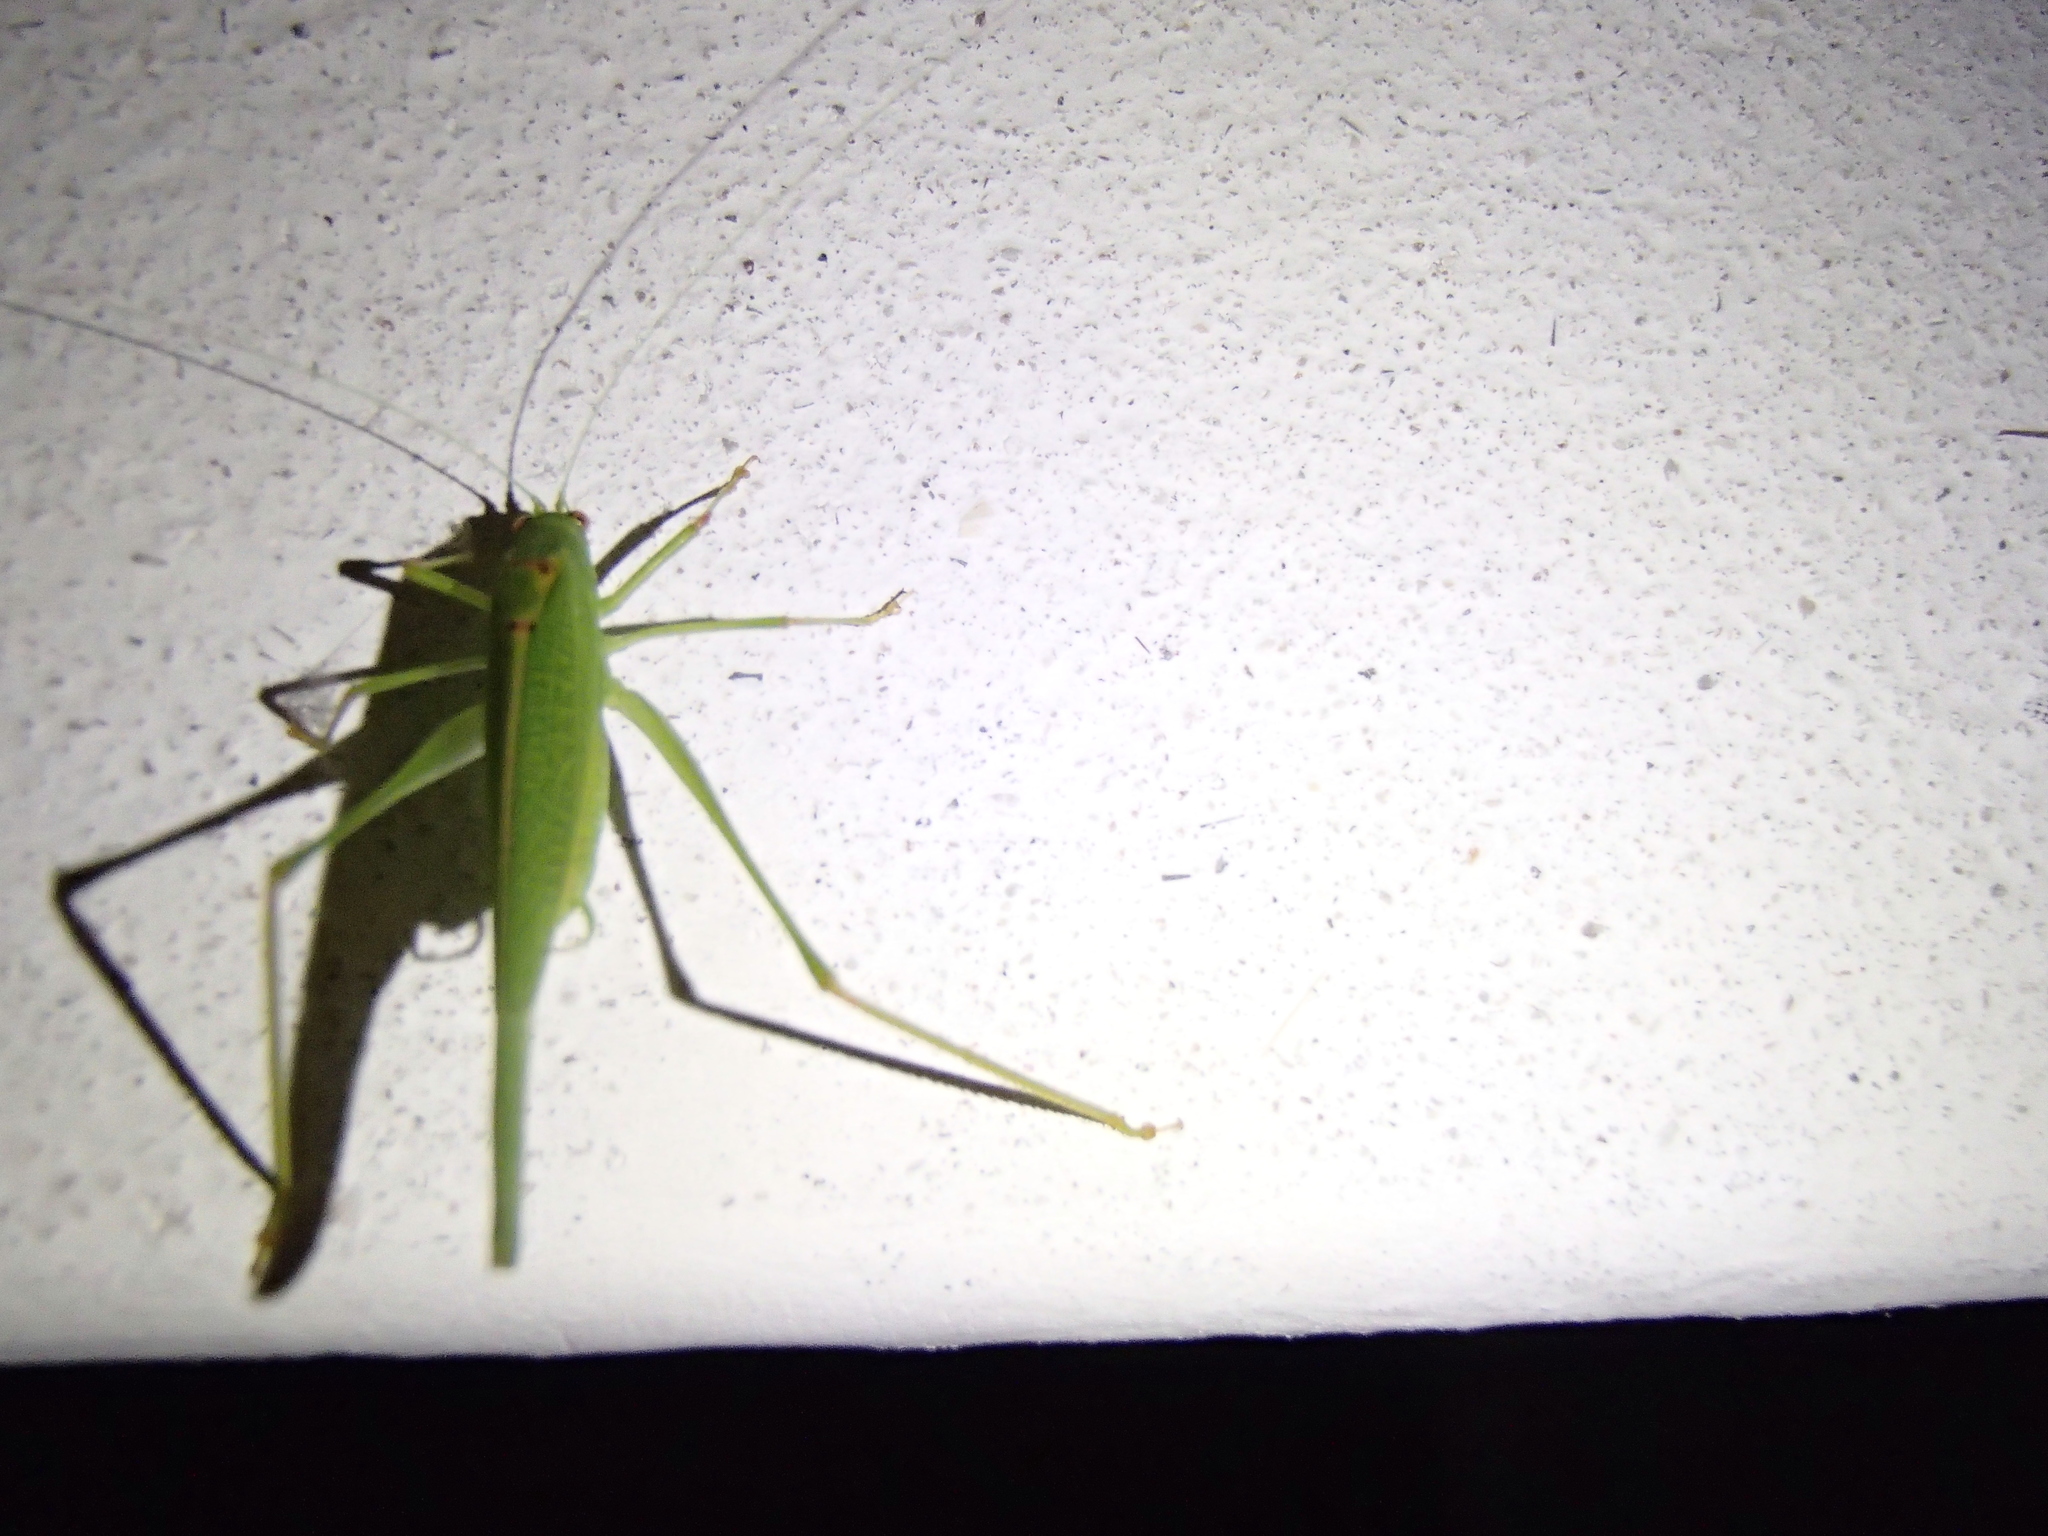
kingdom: Animalia
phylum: Arthropoda
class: Insecta
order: Orthoptera
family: Tettigoniidae
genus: Phaneroptera
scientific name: Phaneroptera nana
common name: Southern sickle bush-cricket
